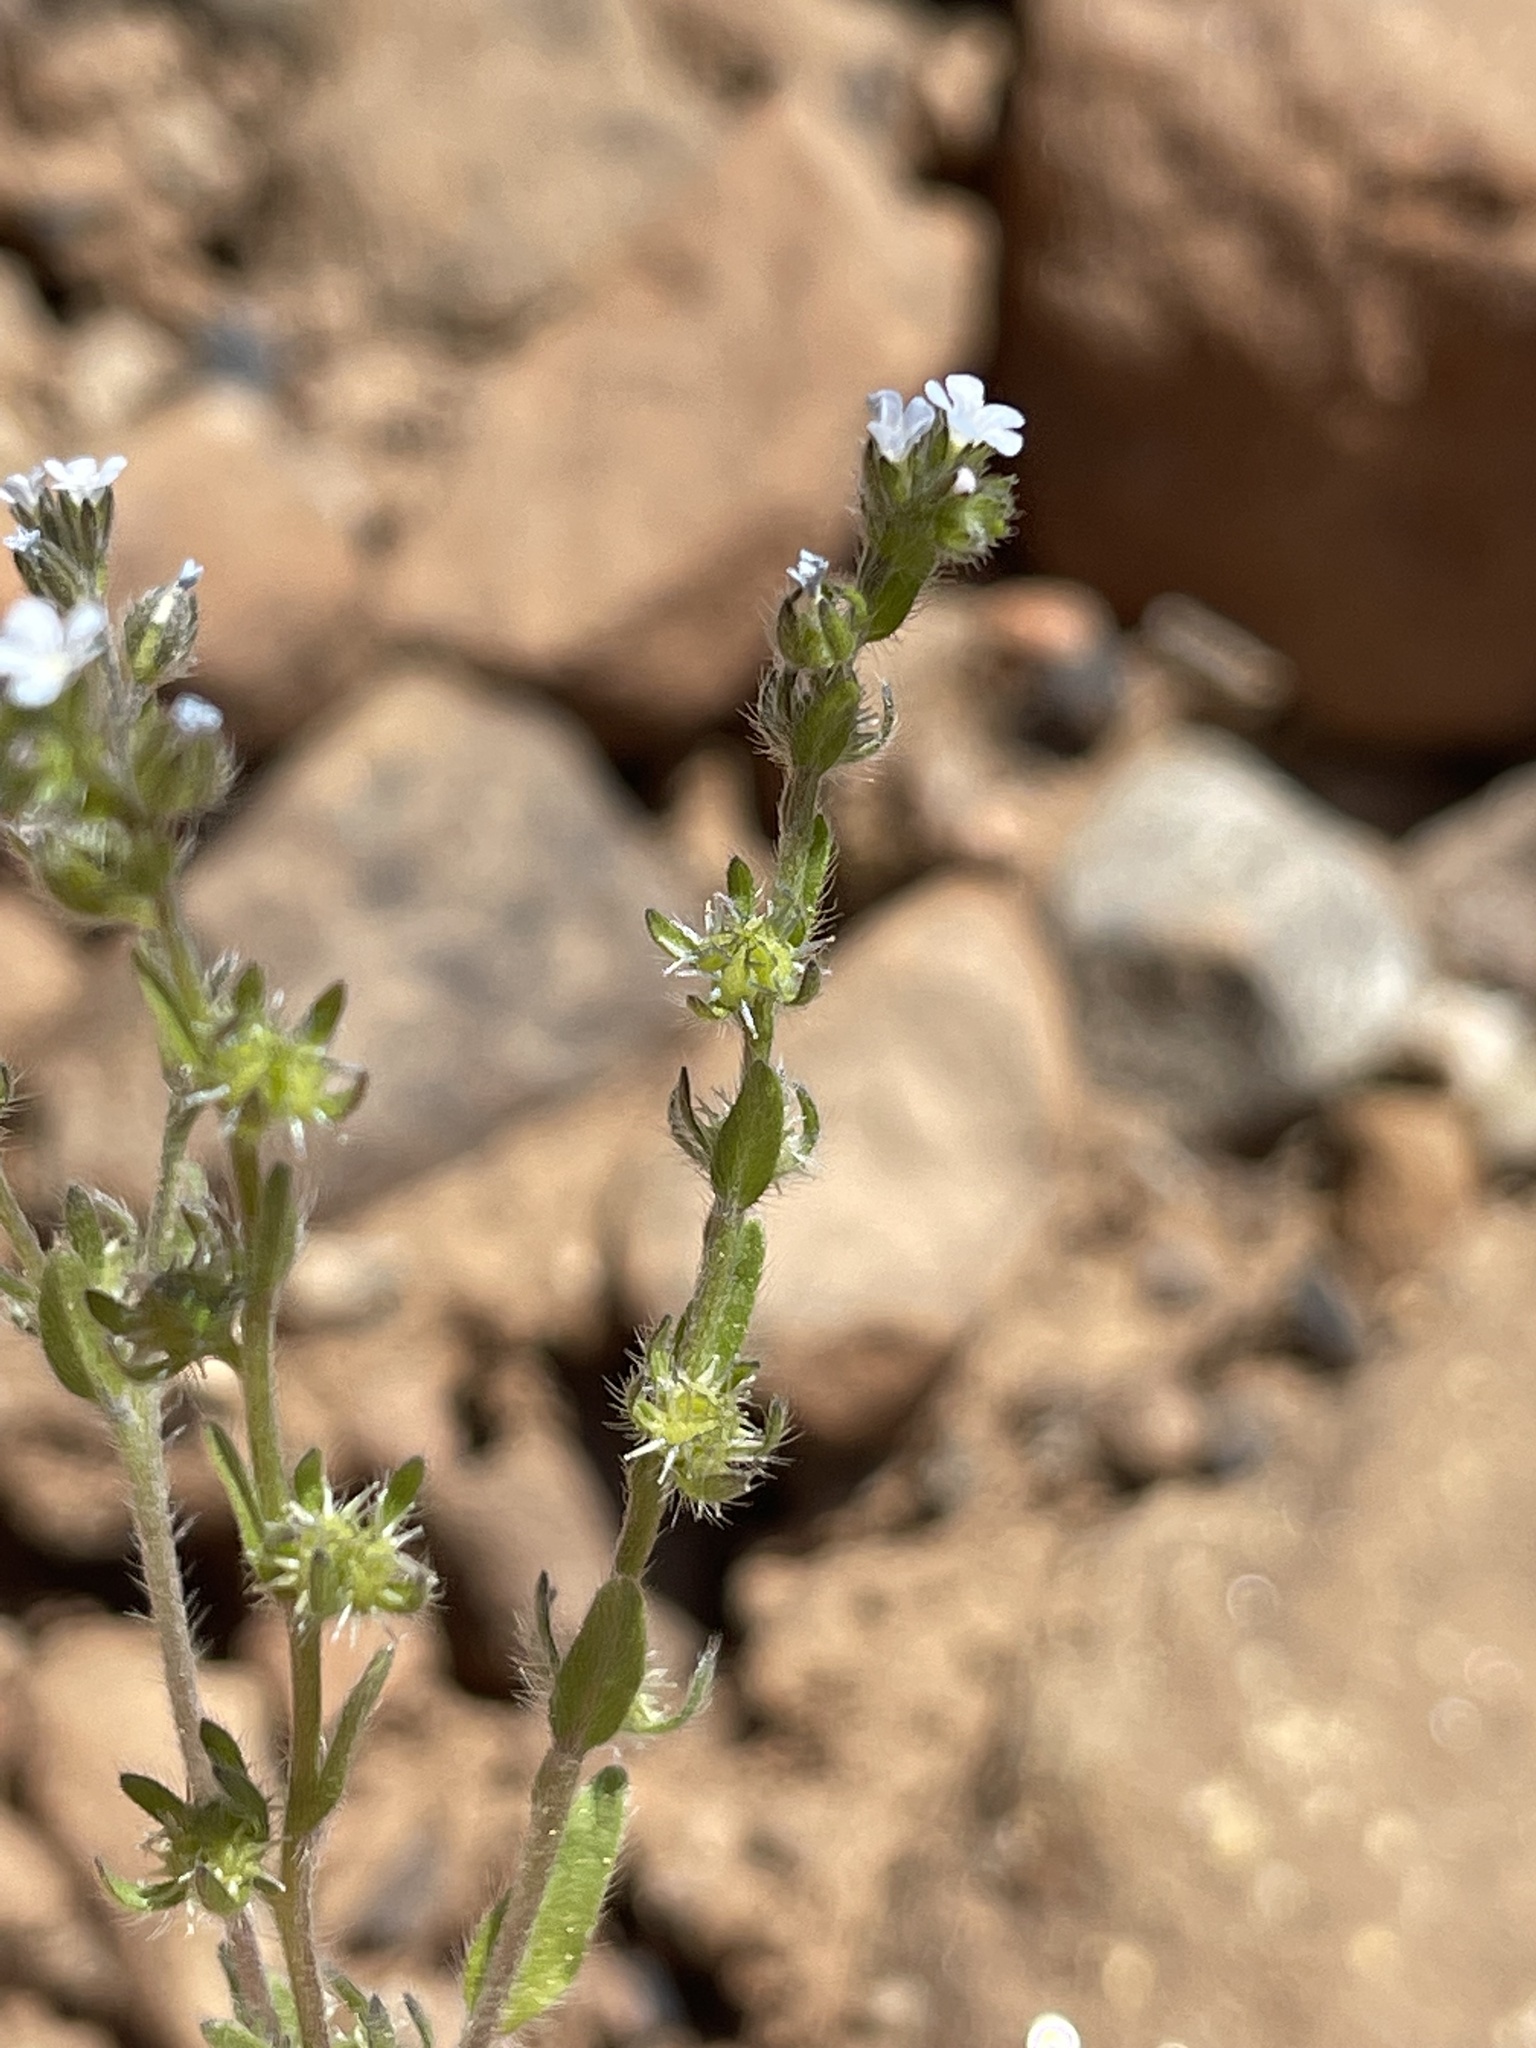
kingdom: Plantae
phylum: Tracheophyta
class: Magnoliopsida
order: Boraginales
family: Boraginaceae
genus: Lappula
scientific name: Lappula occidentalis
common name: Western stickseed
